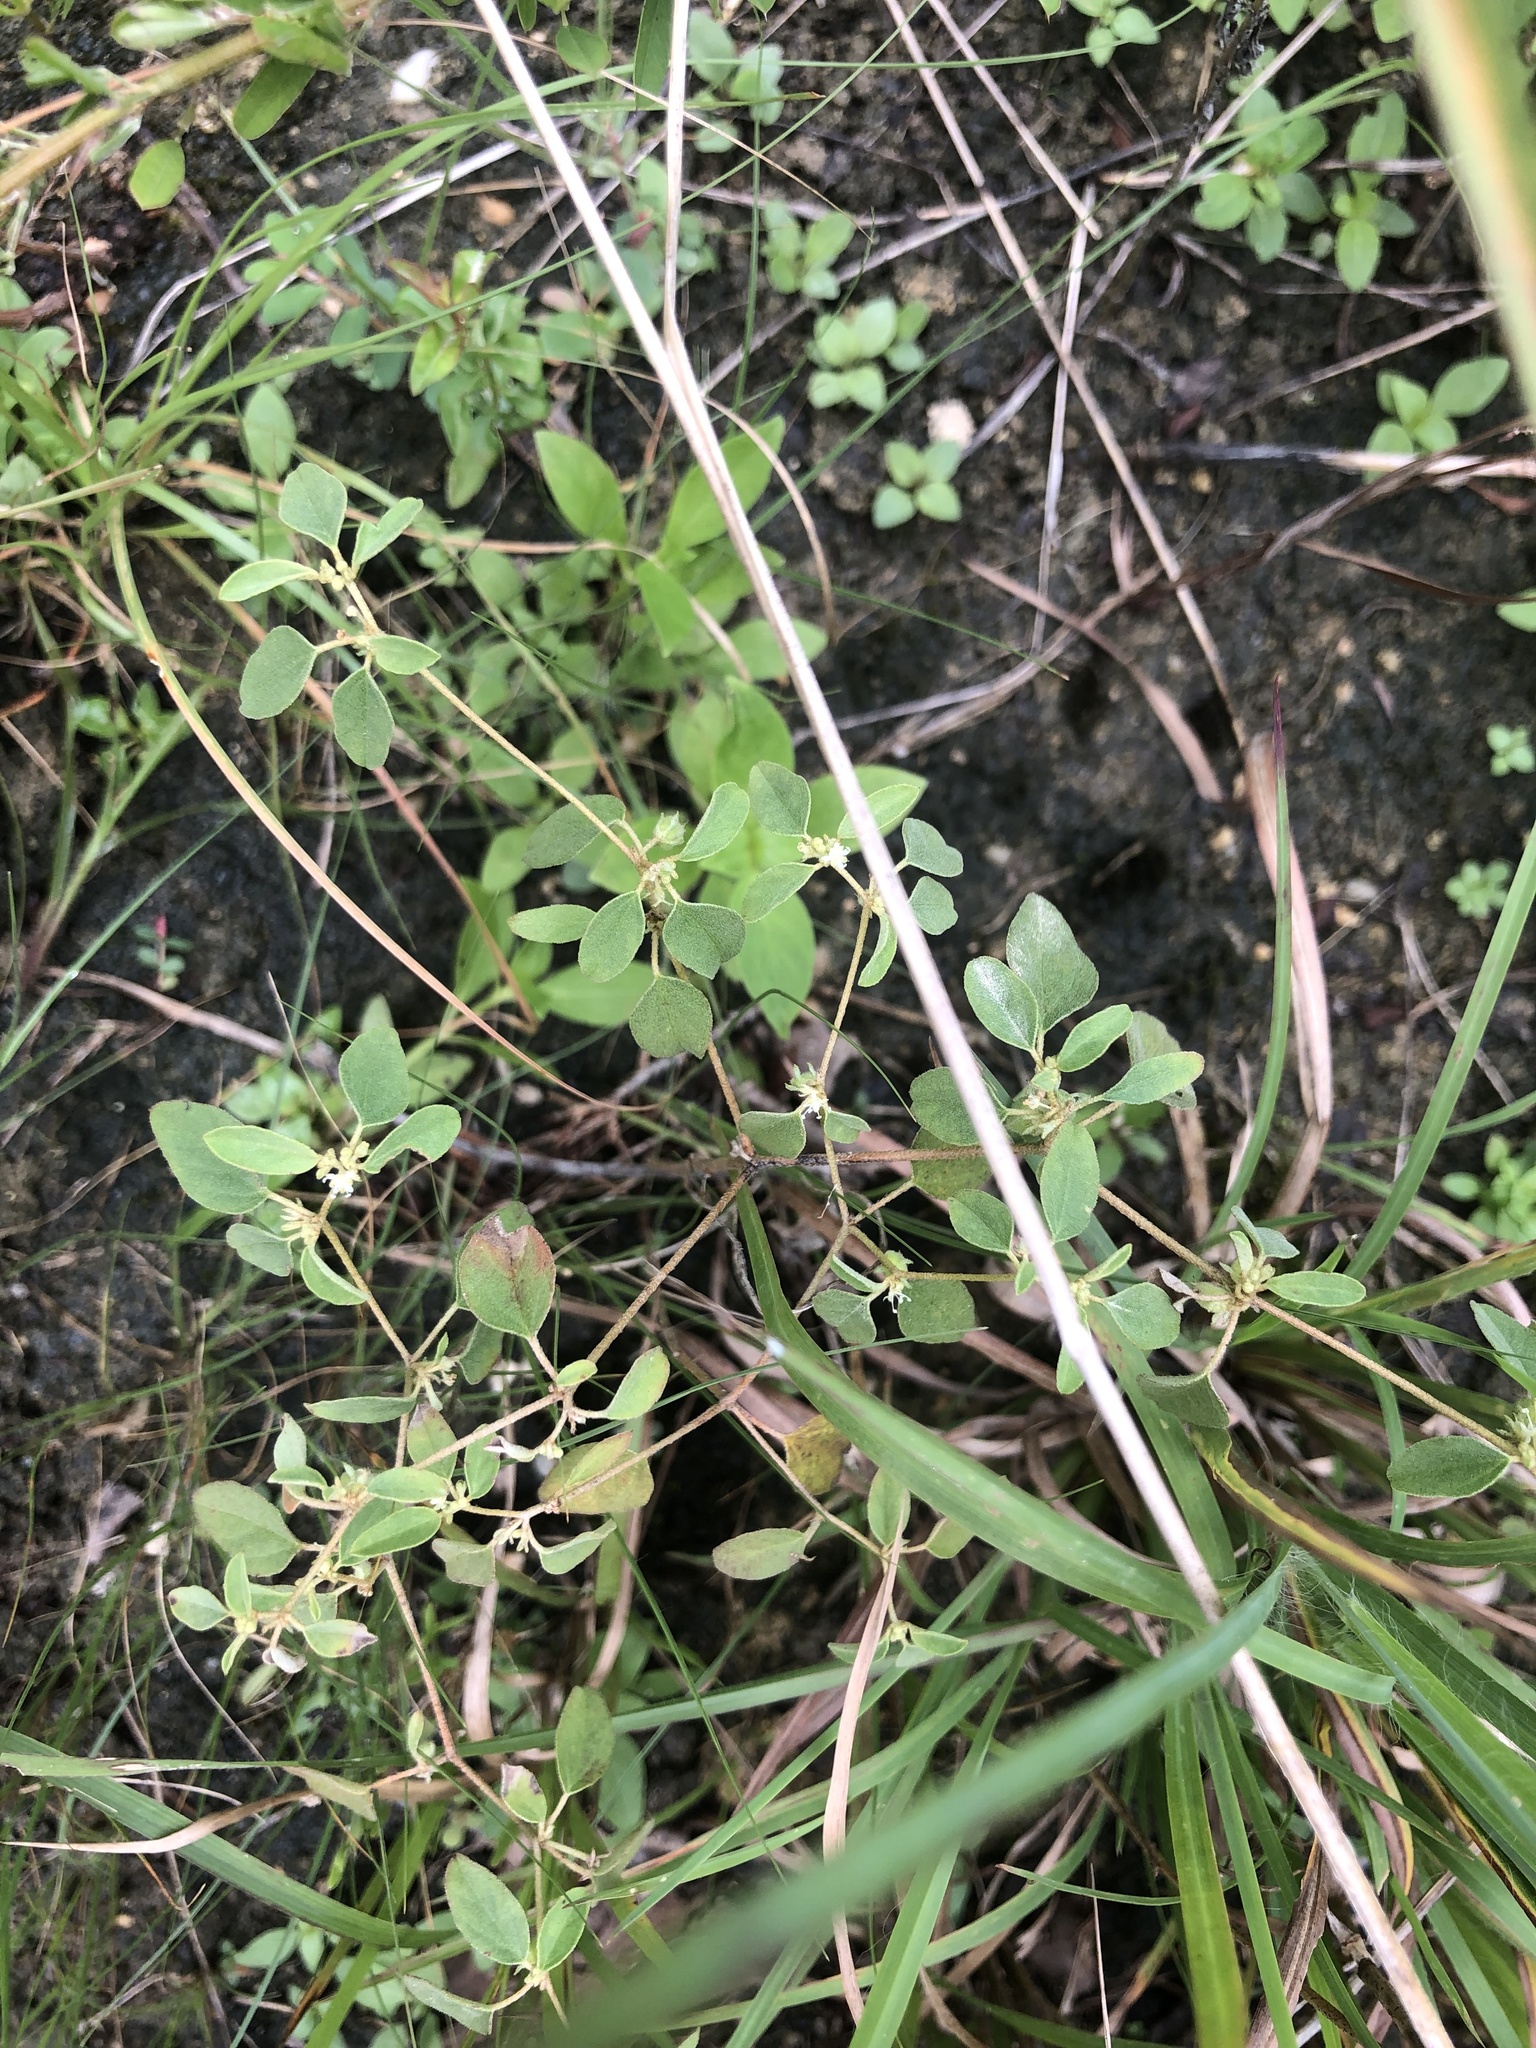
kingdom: Plantae
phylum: Tracheophyta
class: Magnoliopsida
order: Malpighiales
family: Euphorbiaceae
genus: Croton
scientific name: Croton monanthogynus
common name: One-seed croton
